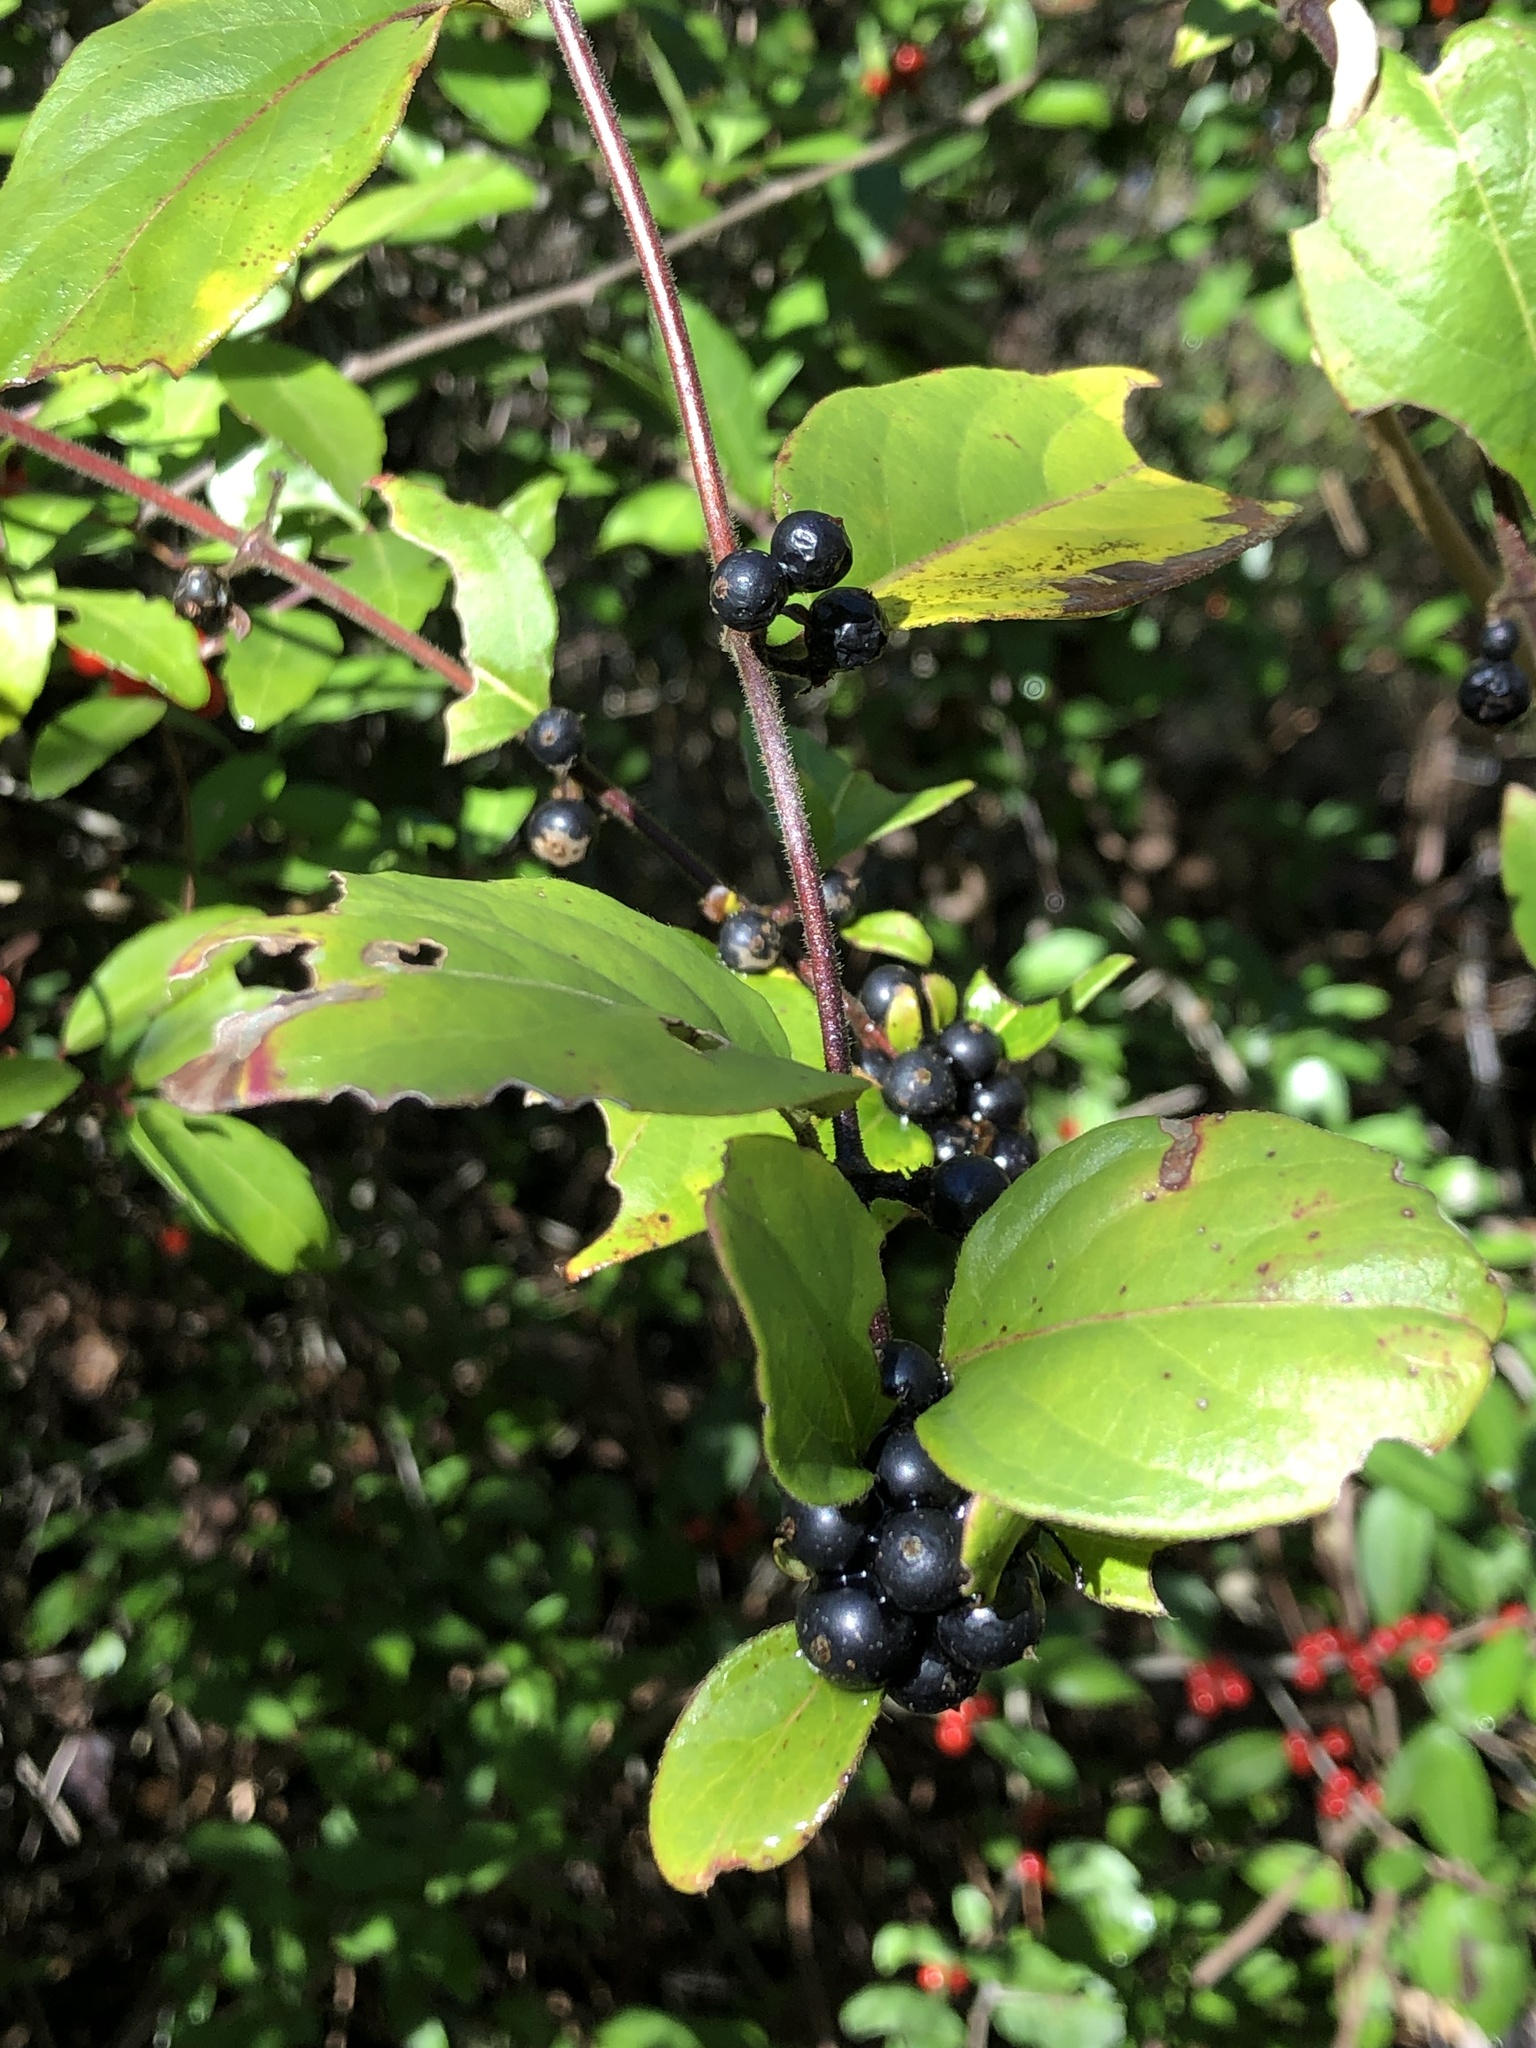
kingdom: Plantae
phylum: Tracheophyta
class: Magnoliopsida
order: Dipsacales
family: Caprifoliaceae
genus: Lonicera
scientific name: Lonicera japonica
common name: Japanese honeysuckle
